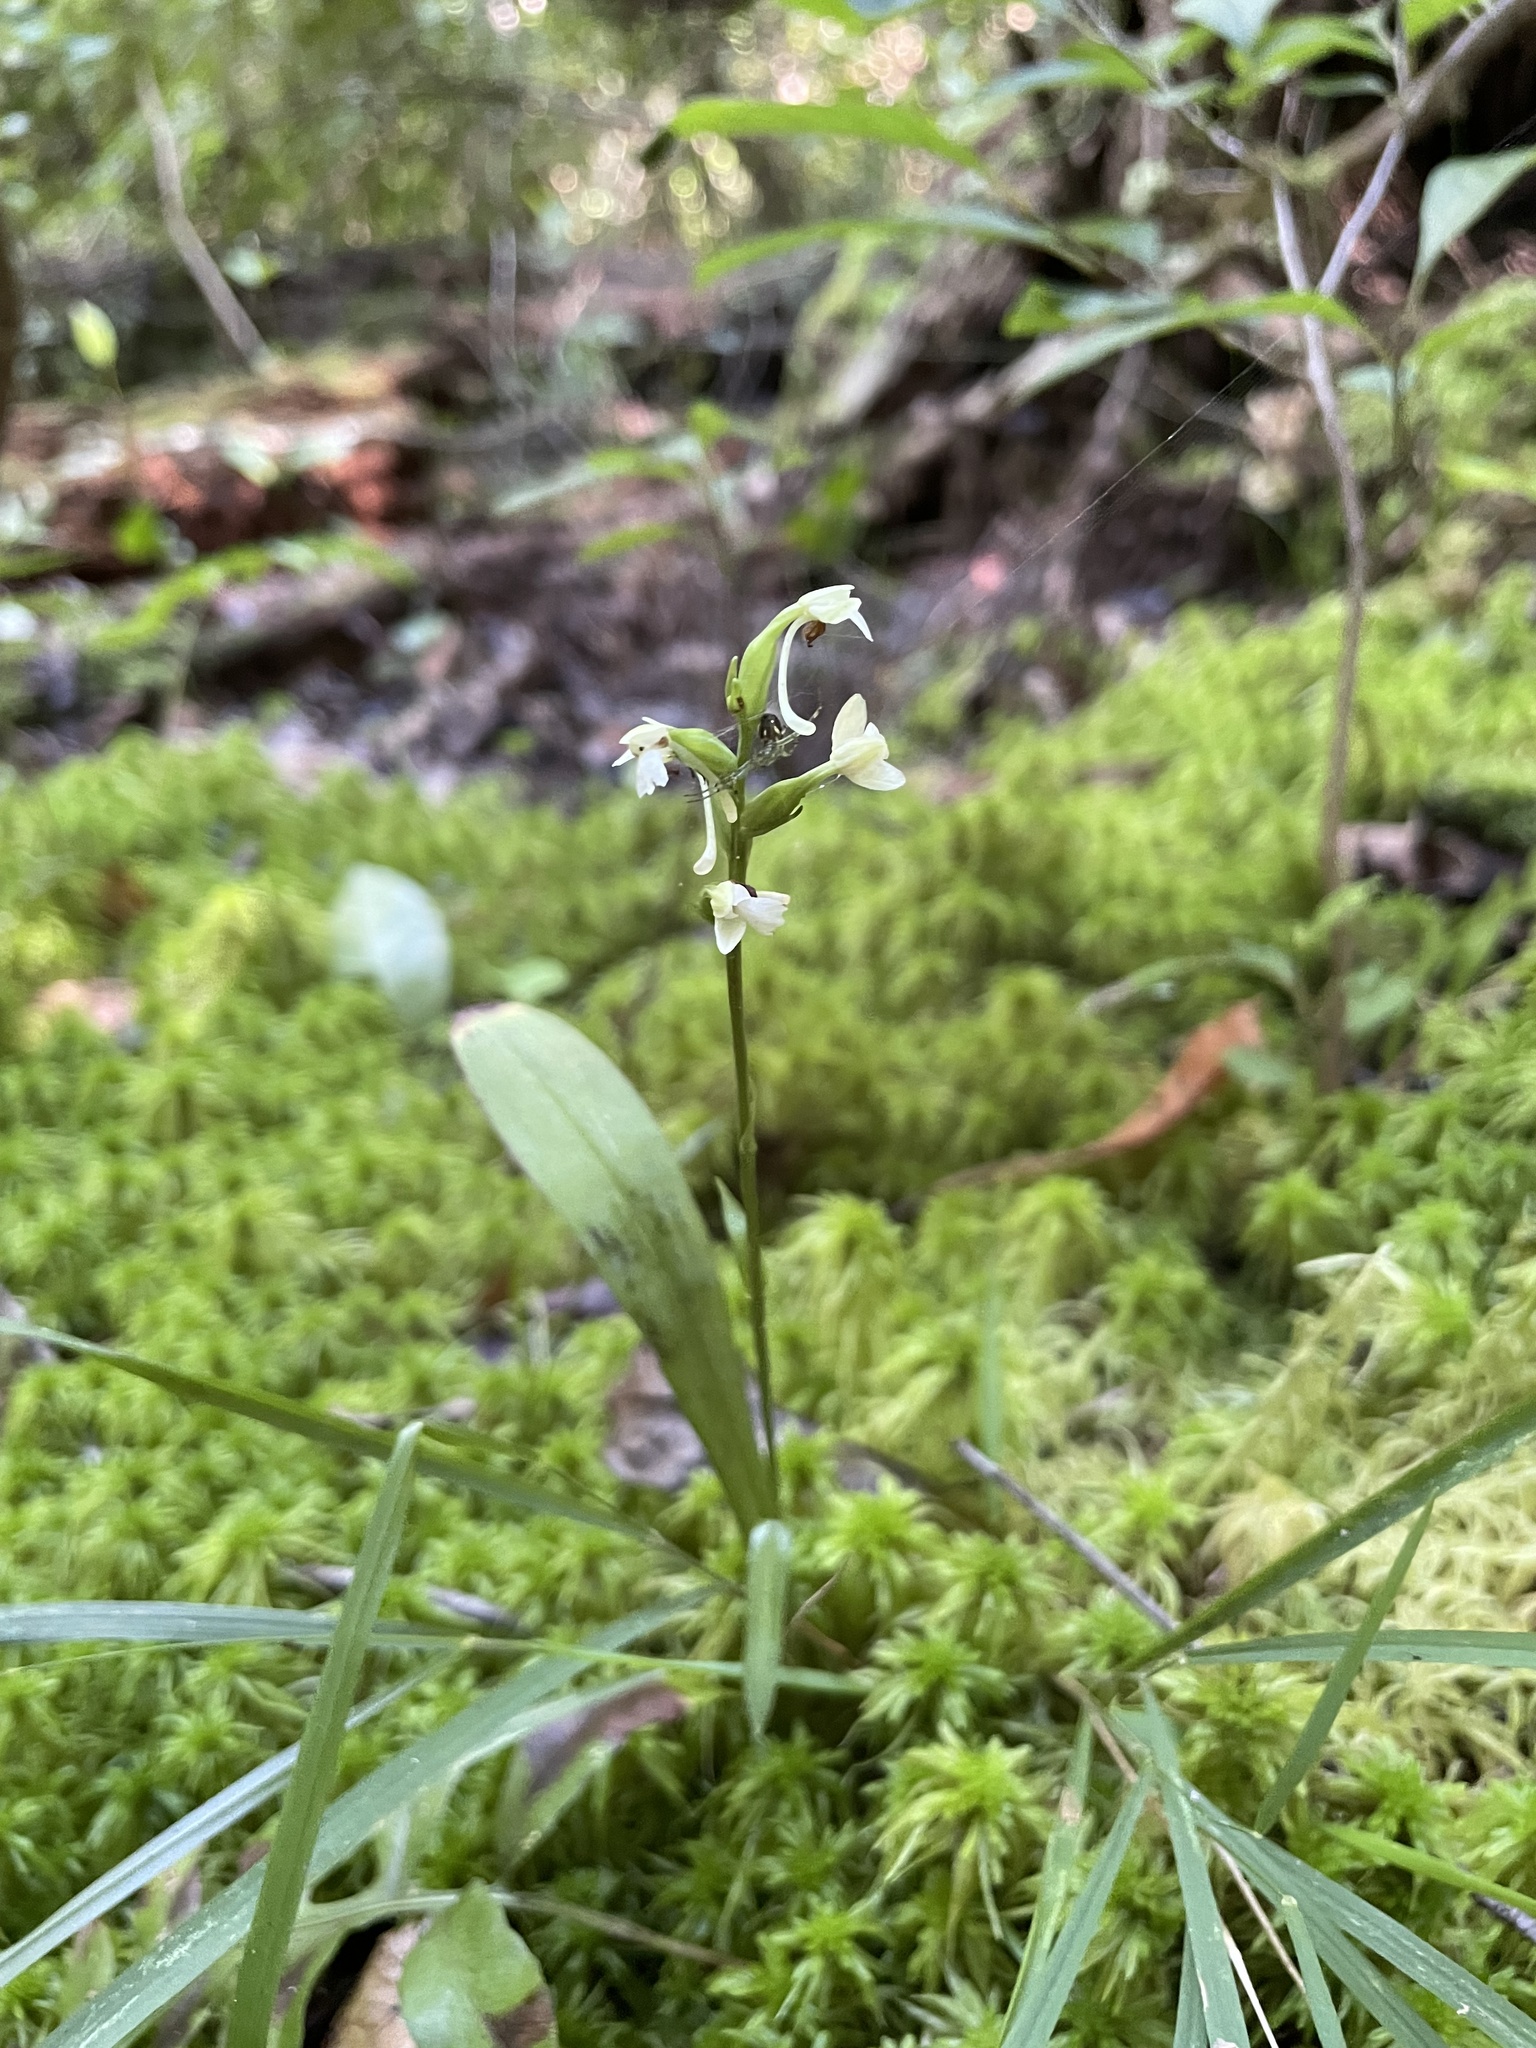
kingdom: Plantae
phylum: Tracheophyta
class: Liliopsida
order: Asparagales
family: Orchidaceae
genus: Platanthera
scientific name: Platanthera clavellata
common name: Club-spur orchid
